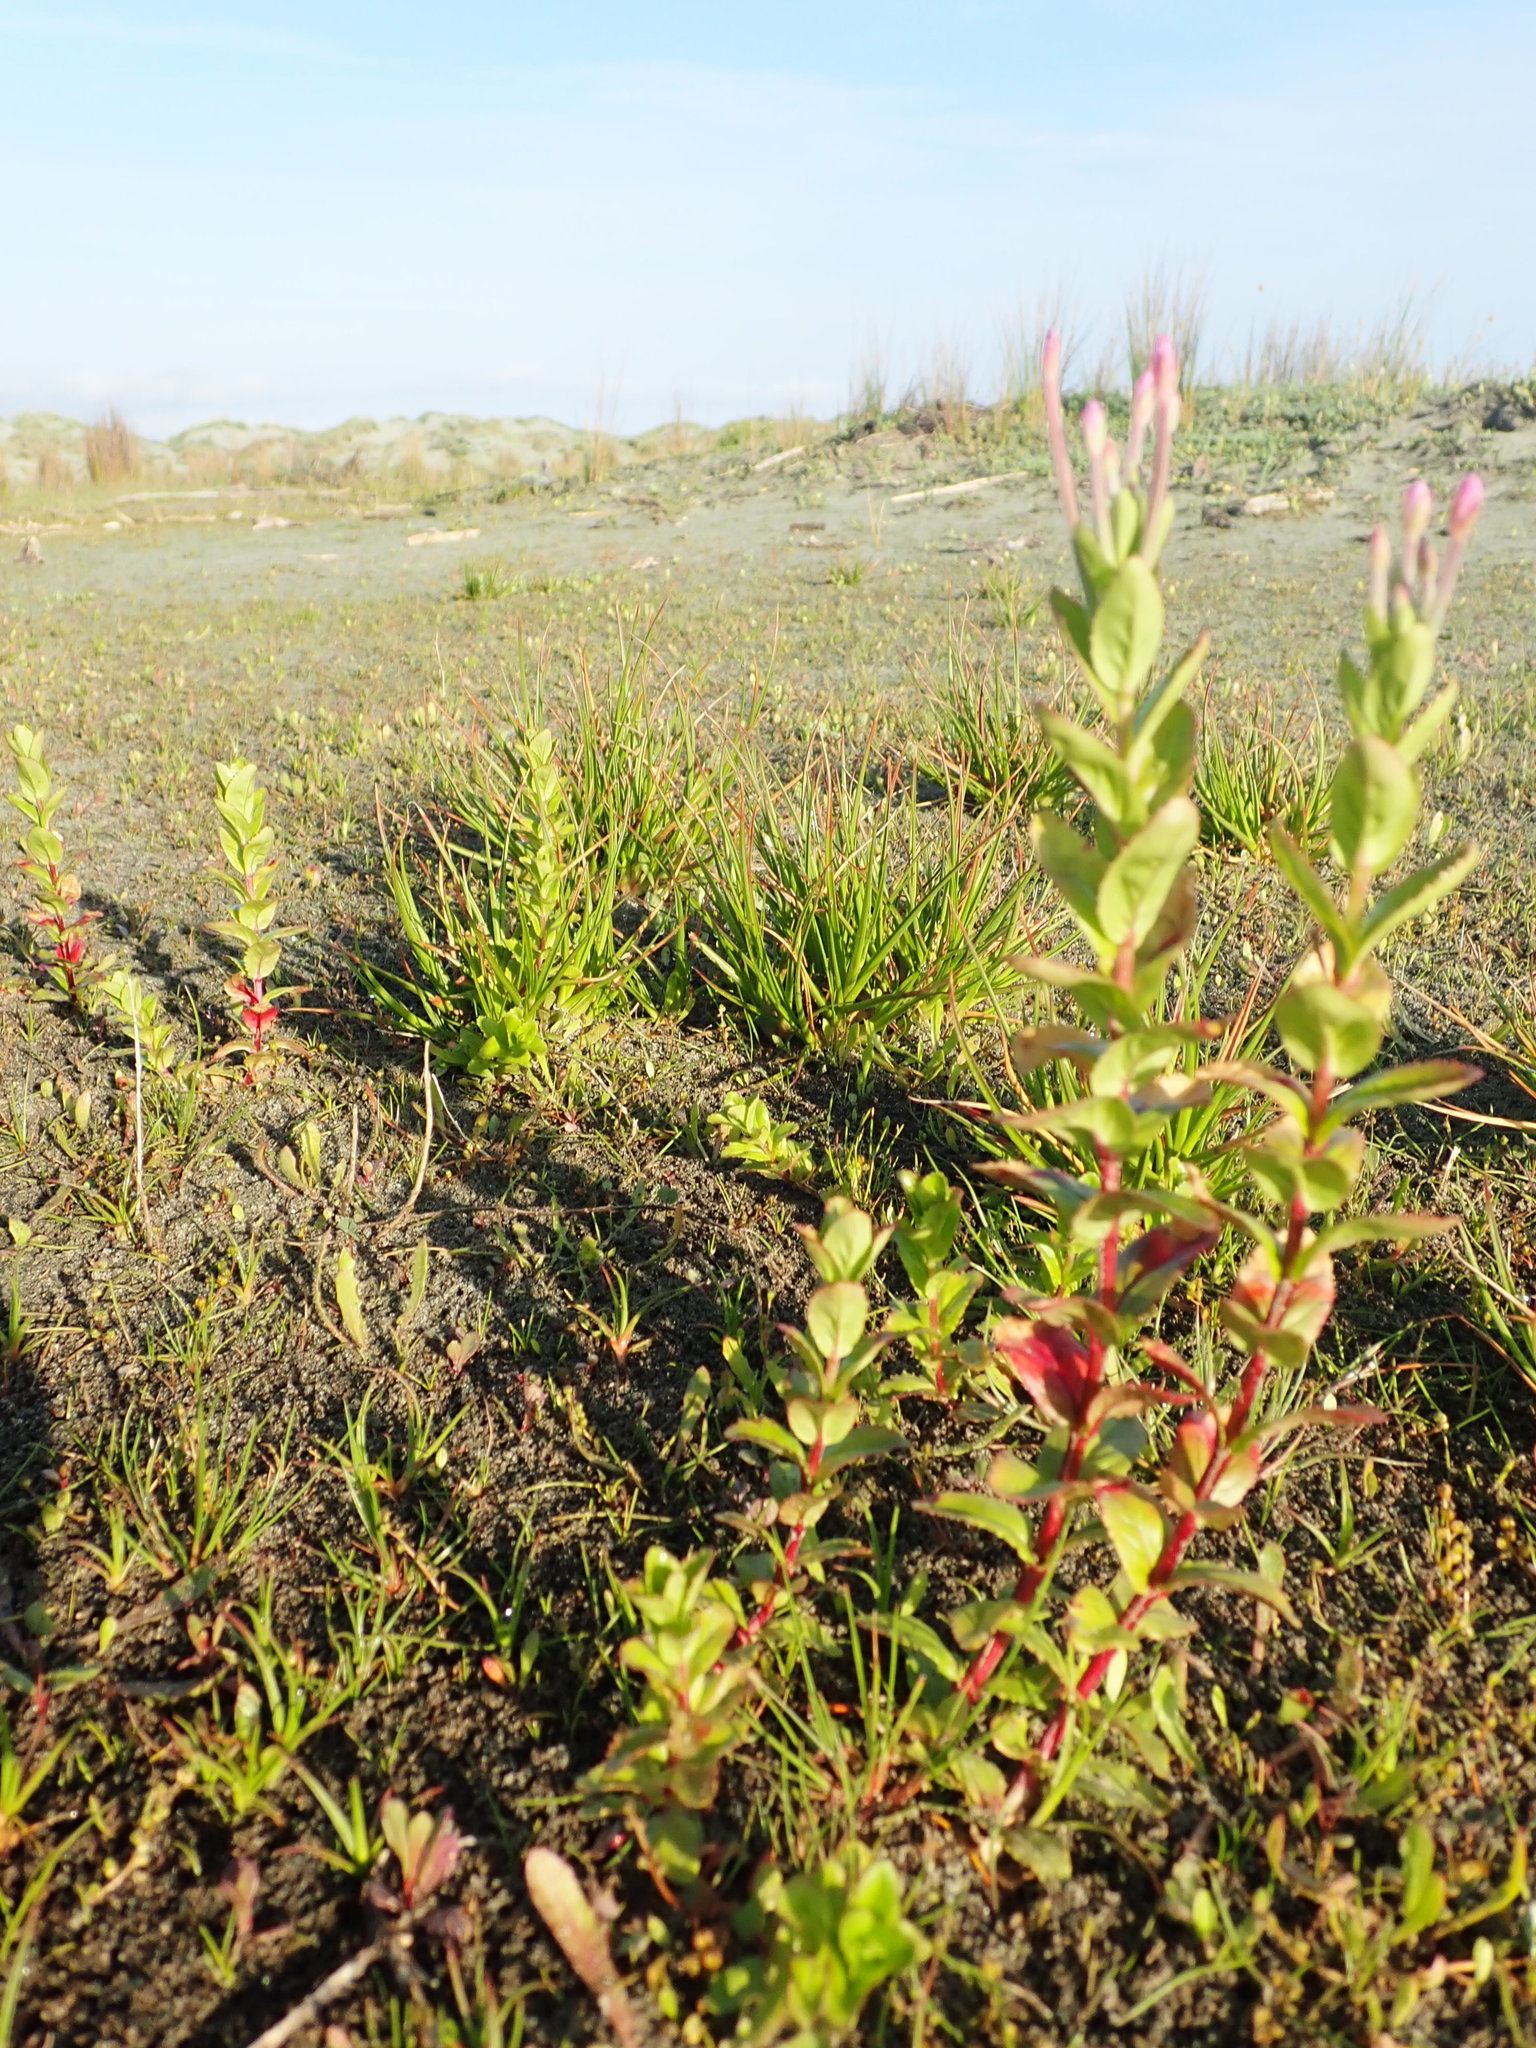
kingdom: Plantae
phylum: Tracheophyta
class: Magnoliopsida
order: Myrtales
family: Onagraceae
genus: Epilobium
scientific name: Epilobium billardiereanum
